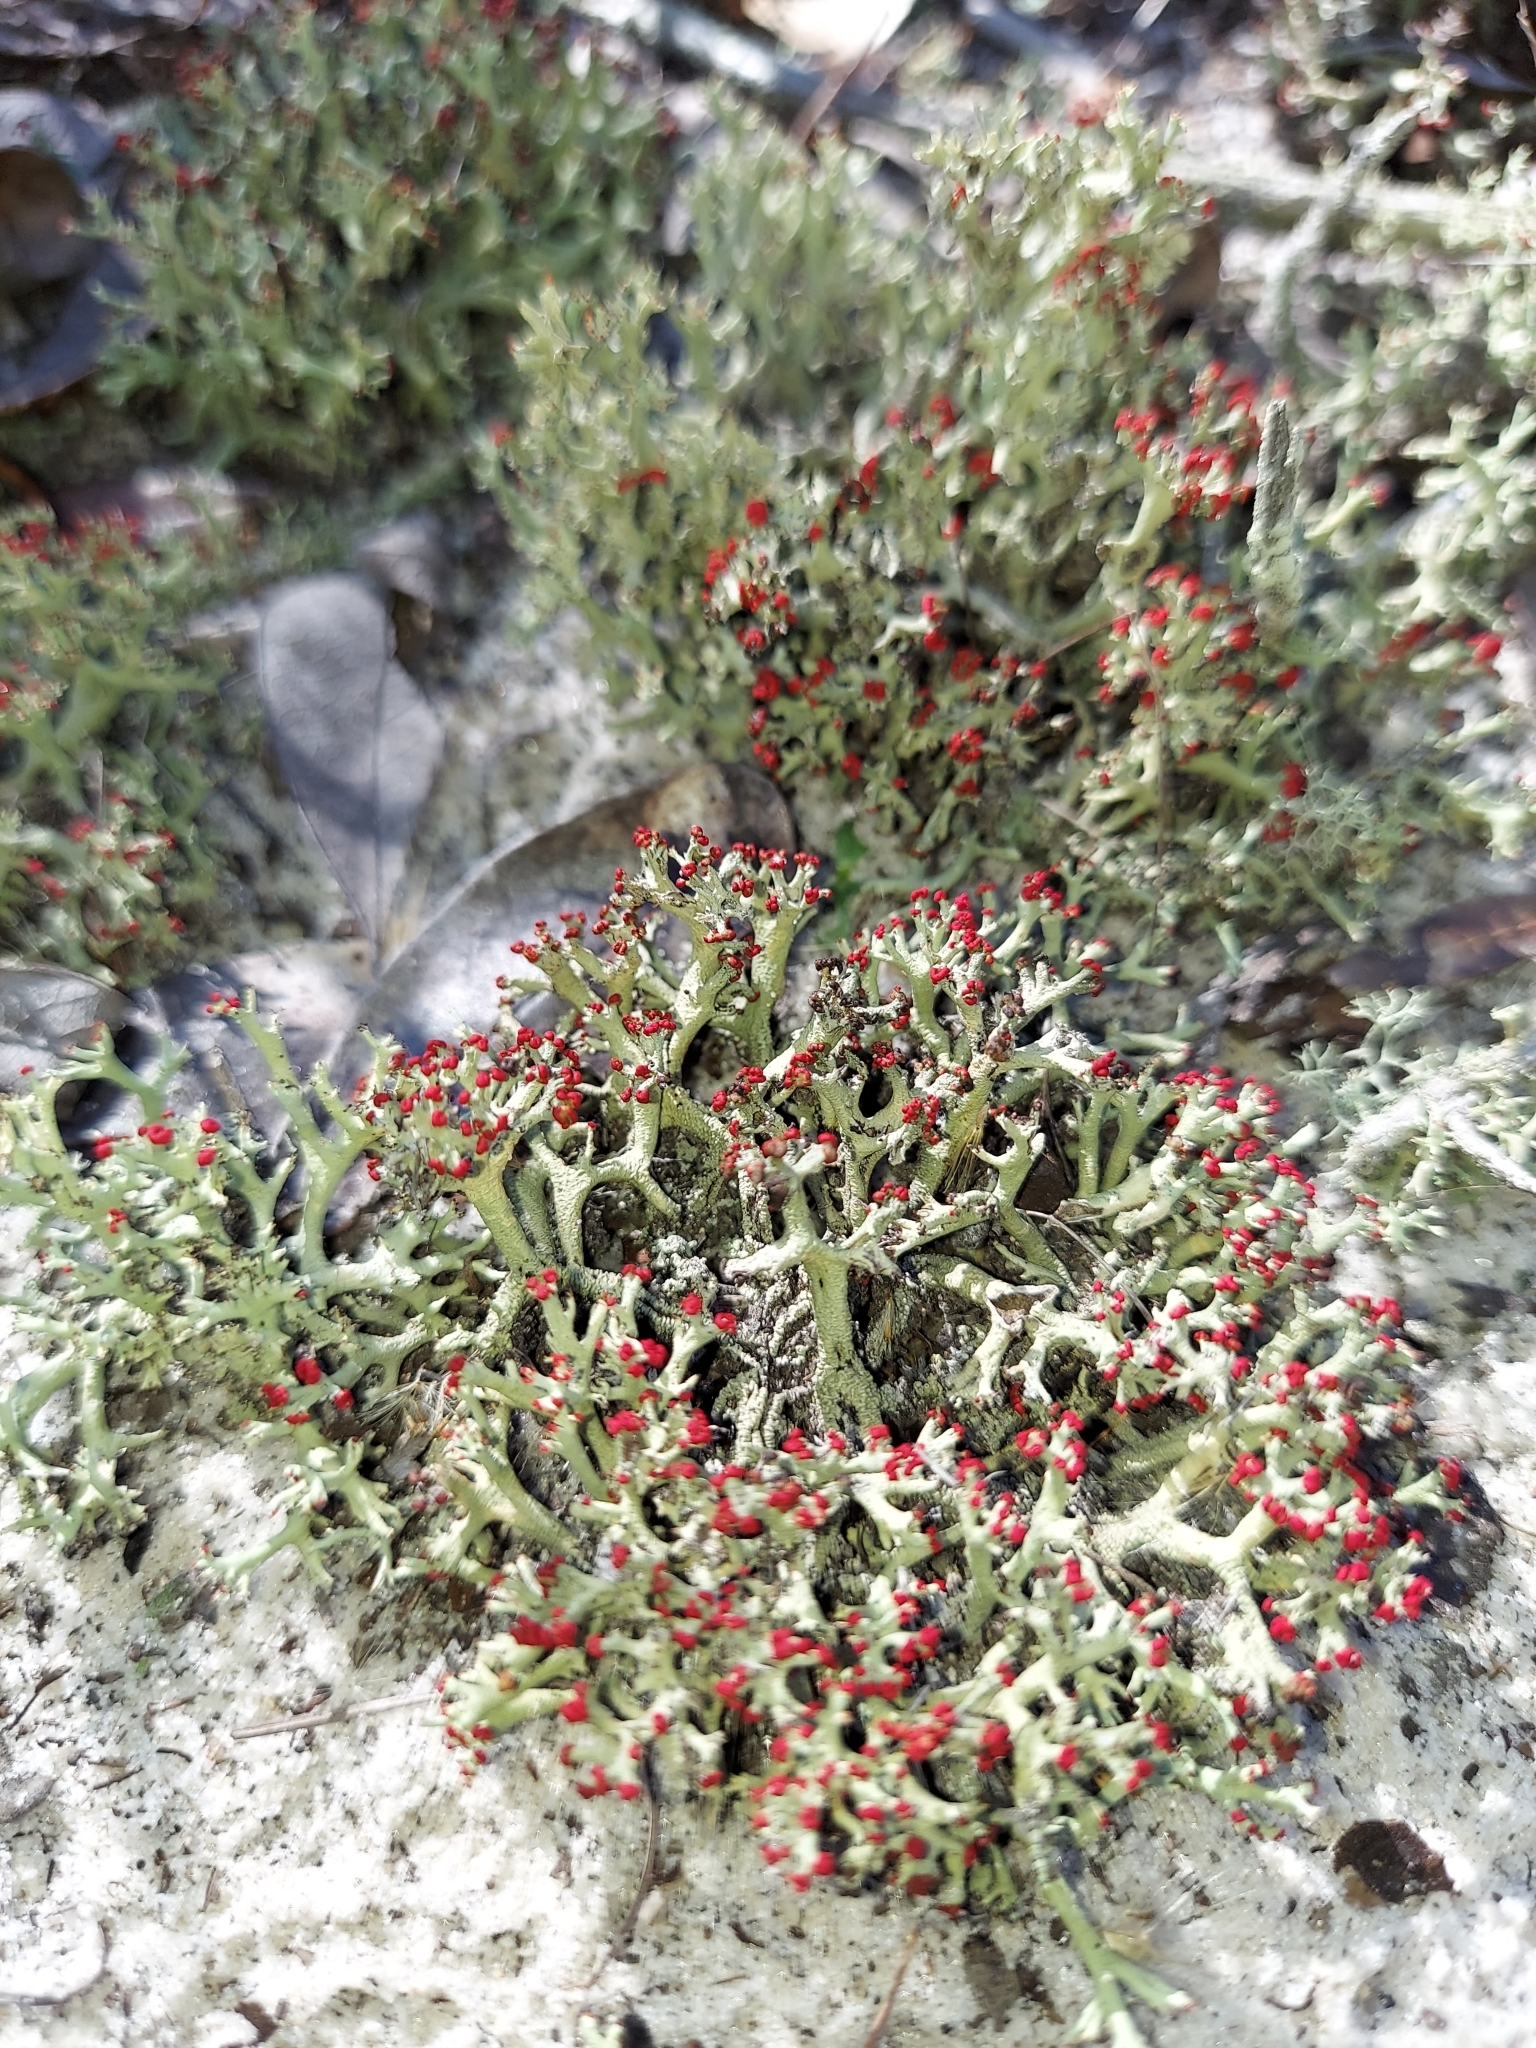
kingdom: Fungi
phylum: Ascomycota
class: Lecanoromycetes
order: Lecanorales
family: Cladoniaceae
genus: Cladonia
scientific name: Cladonia leporina
